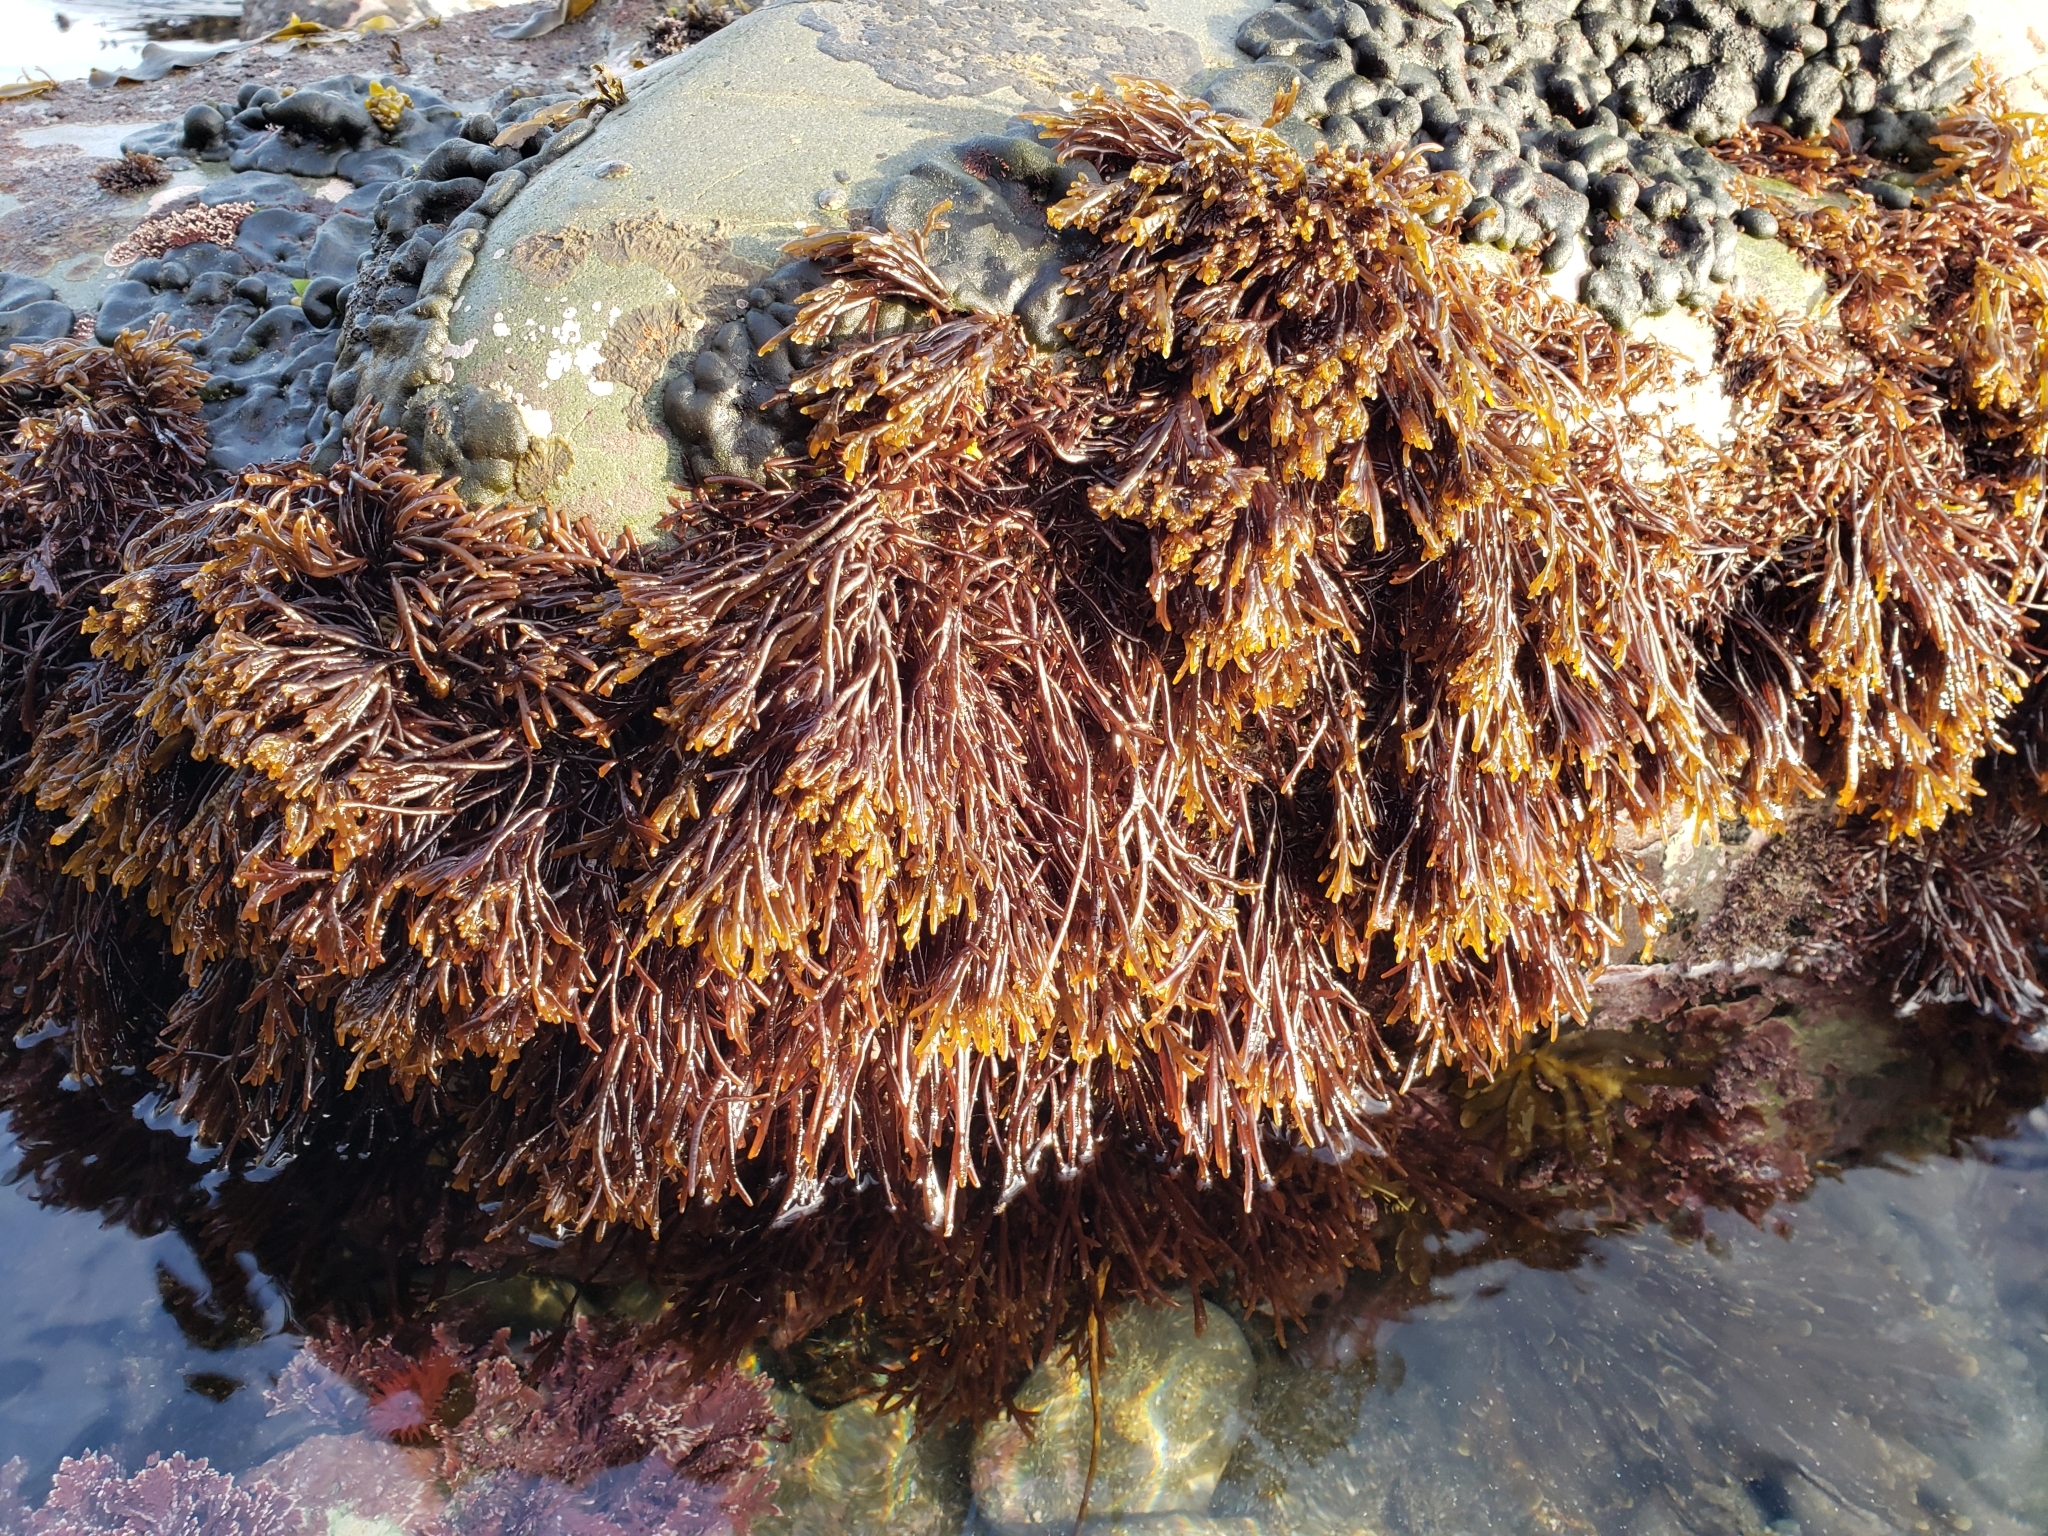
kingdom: Plantae
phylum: Rhodophyta
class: Florideophyceae
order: Rhodymeniales
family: Champiaceae
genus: Champia
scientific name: Champia novae-zelandiae
